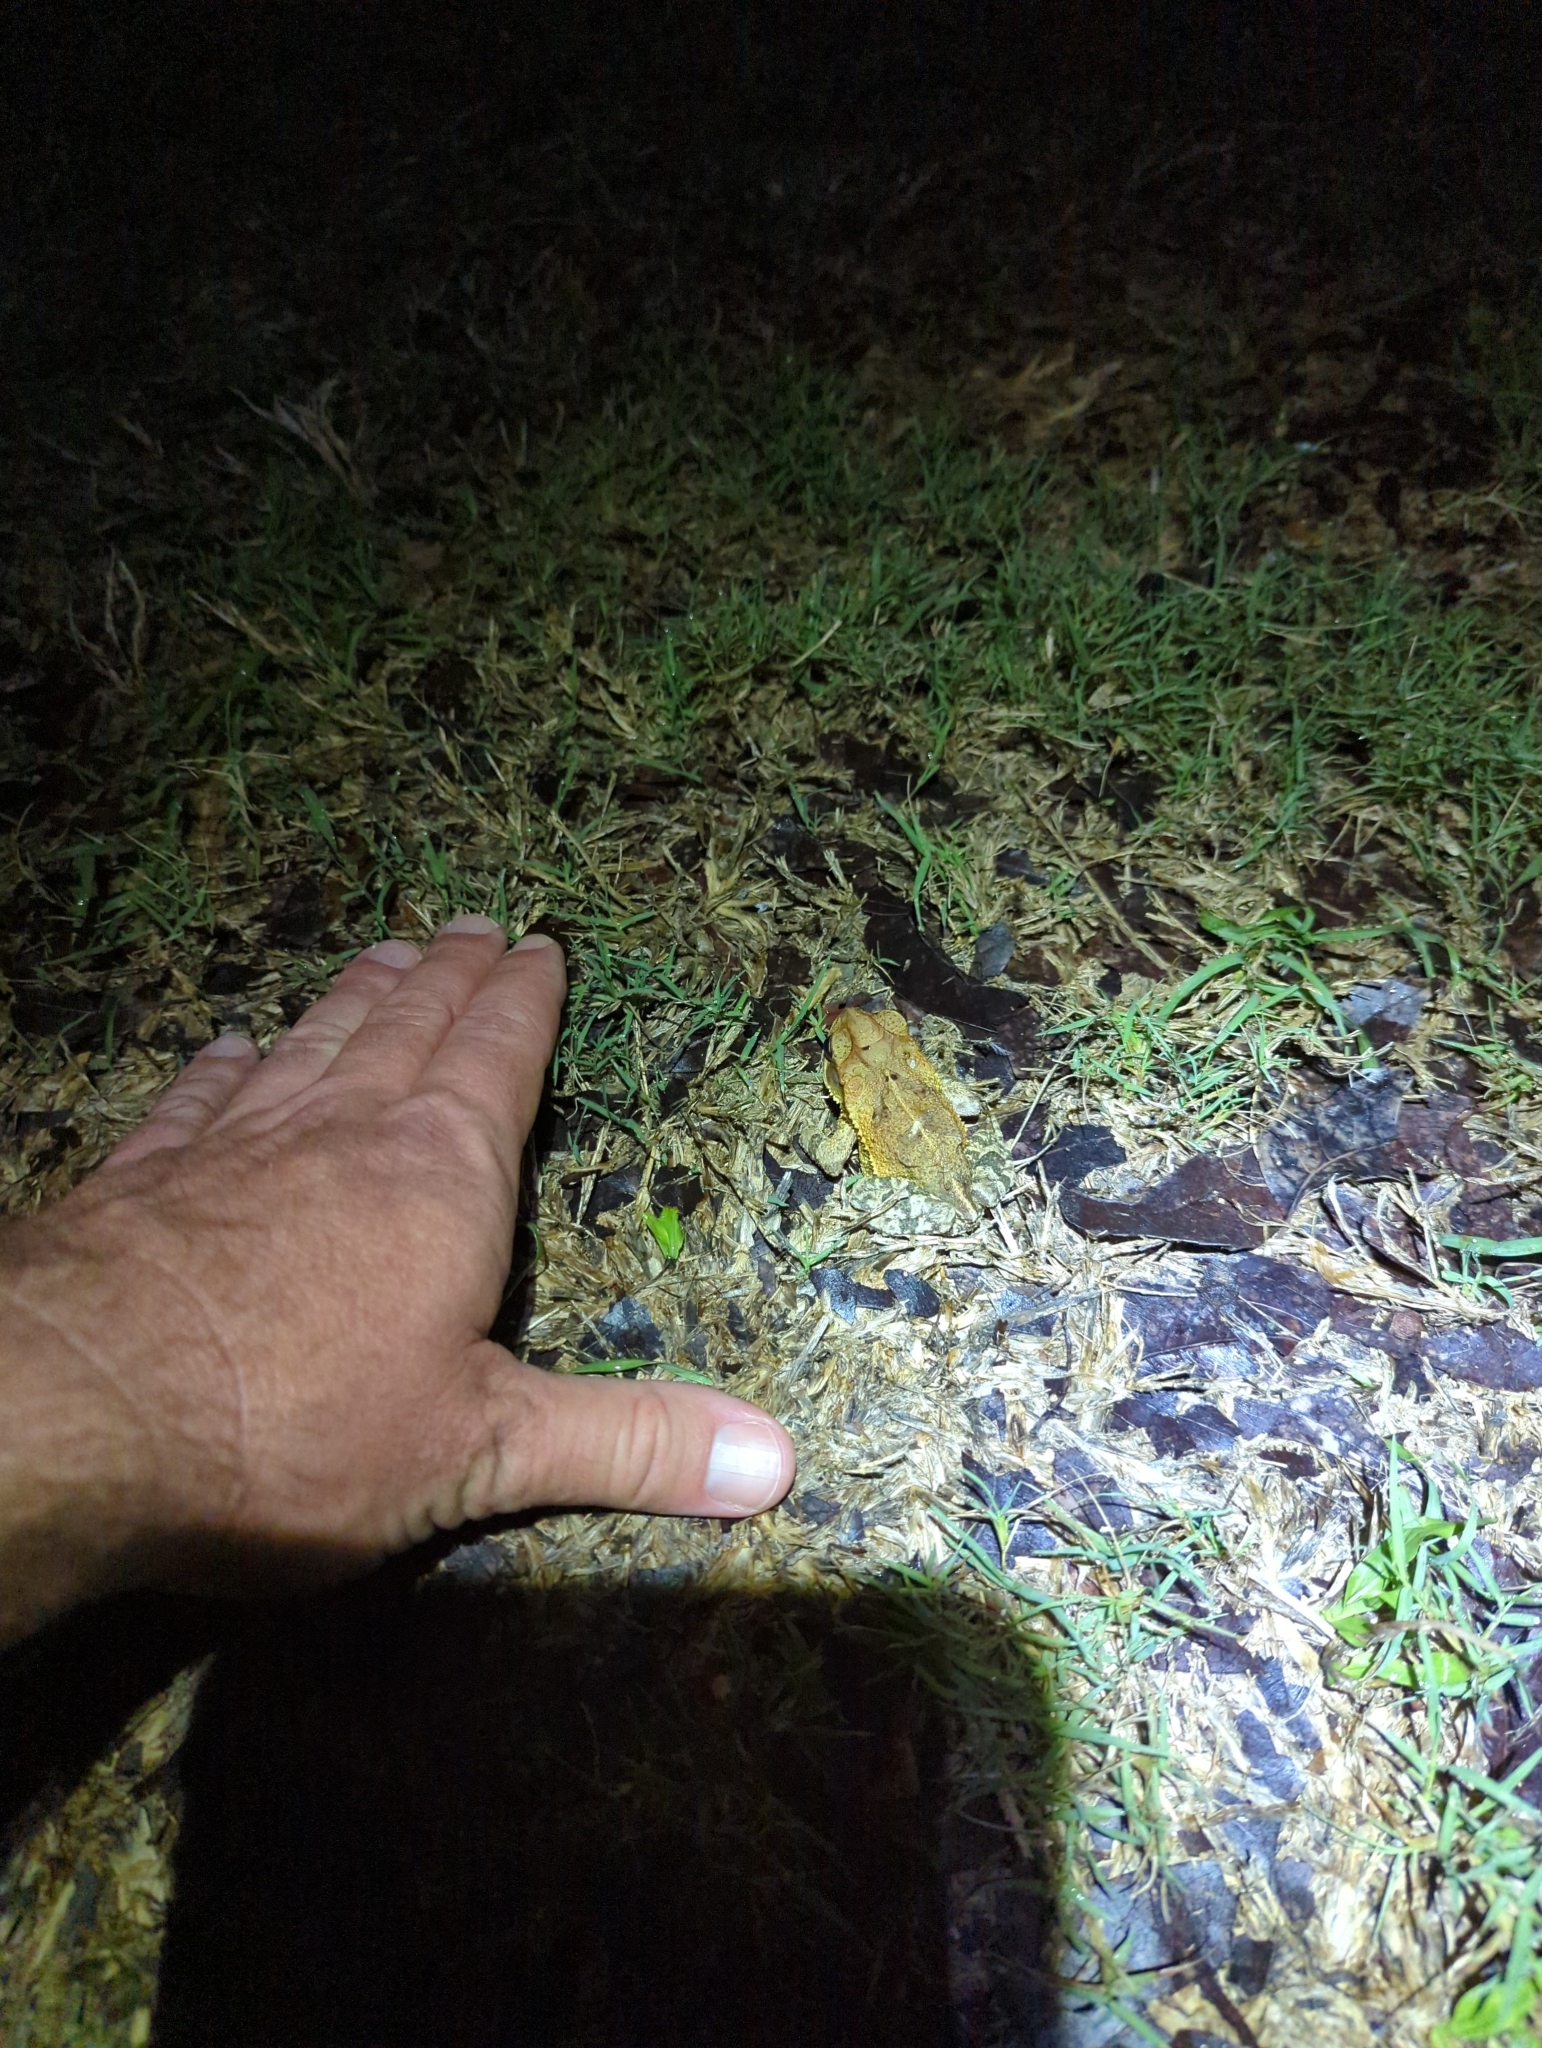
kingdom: Animalia
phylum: Chordata
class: Amphibia
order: Anura
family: Bufonidae
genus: Incilius
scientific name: Incilius valliceps
